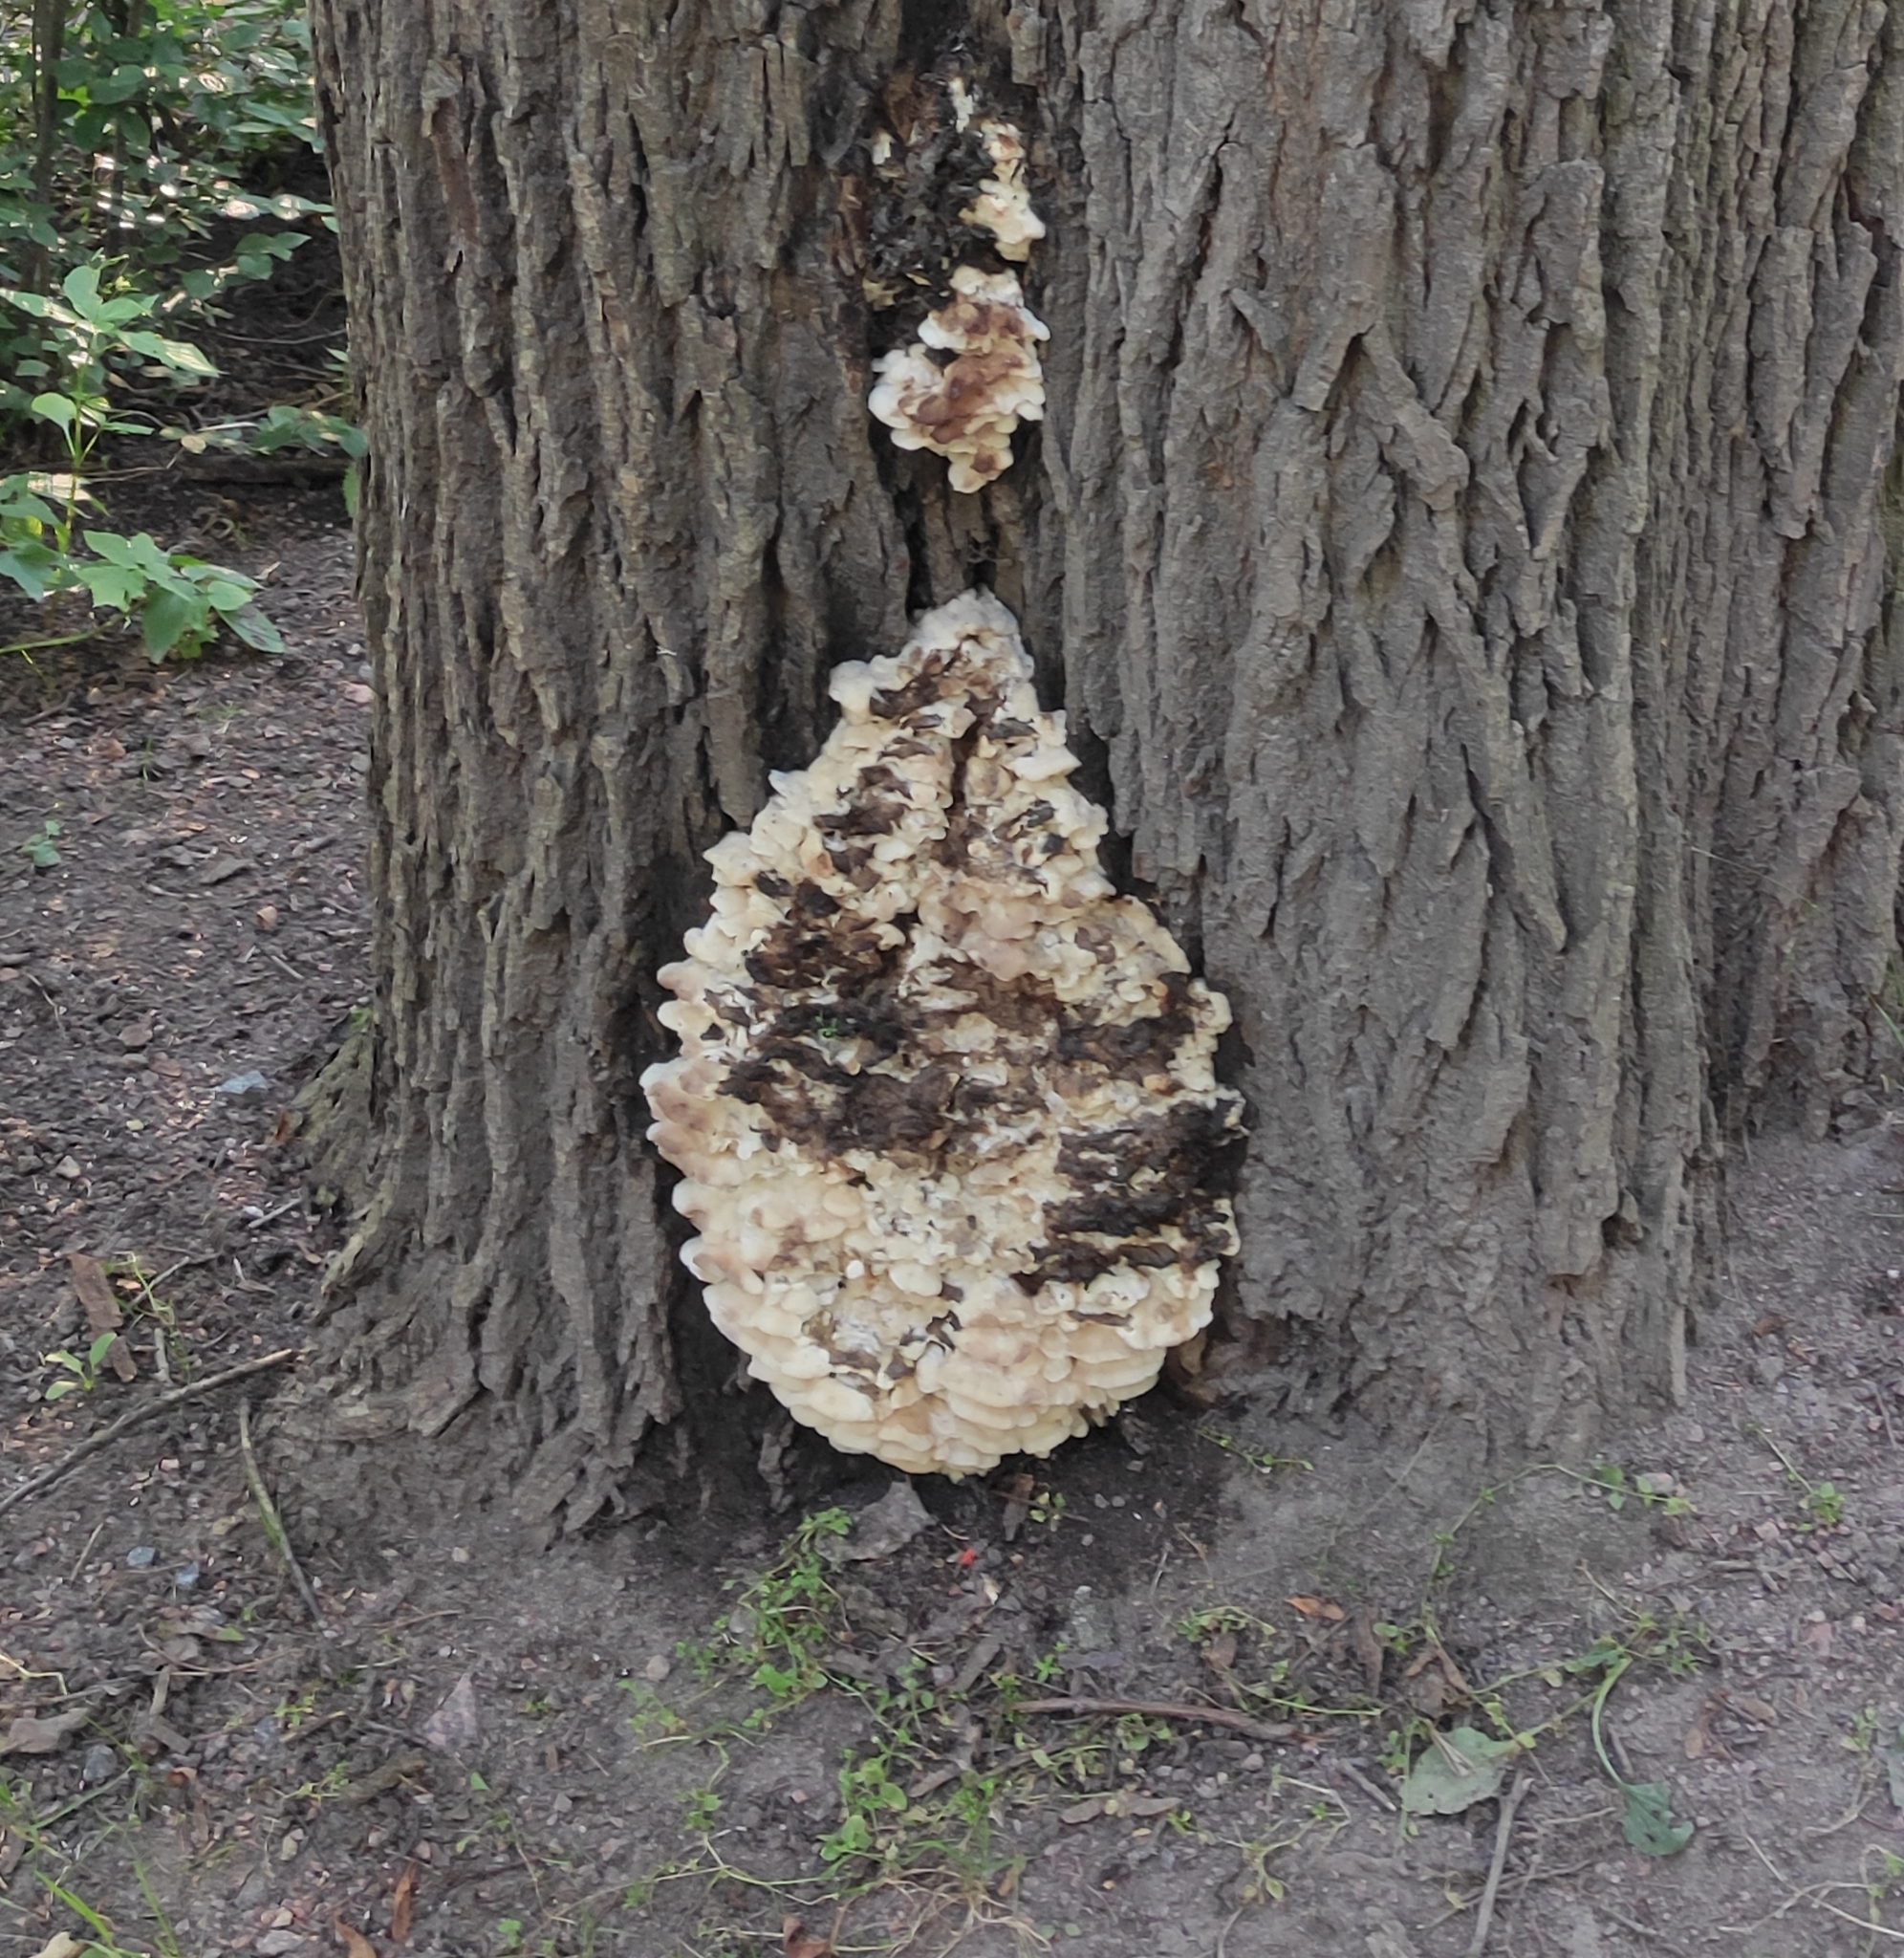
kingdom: Fungi
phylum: Basidiomycota
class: Agaricomycetes
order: Polyporales
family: Meruliaceae
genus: Climacodon
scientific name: Climacodon septentrionalis
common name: Northern tooth
